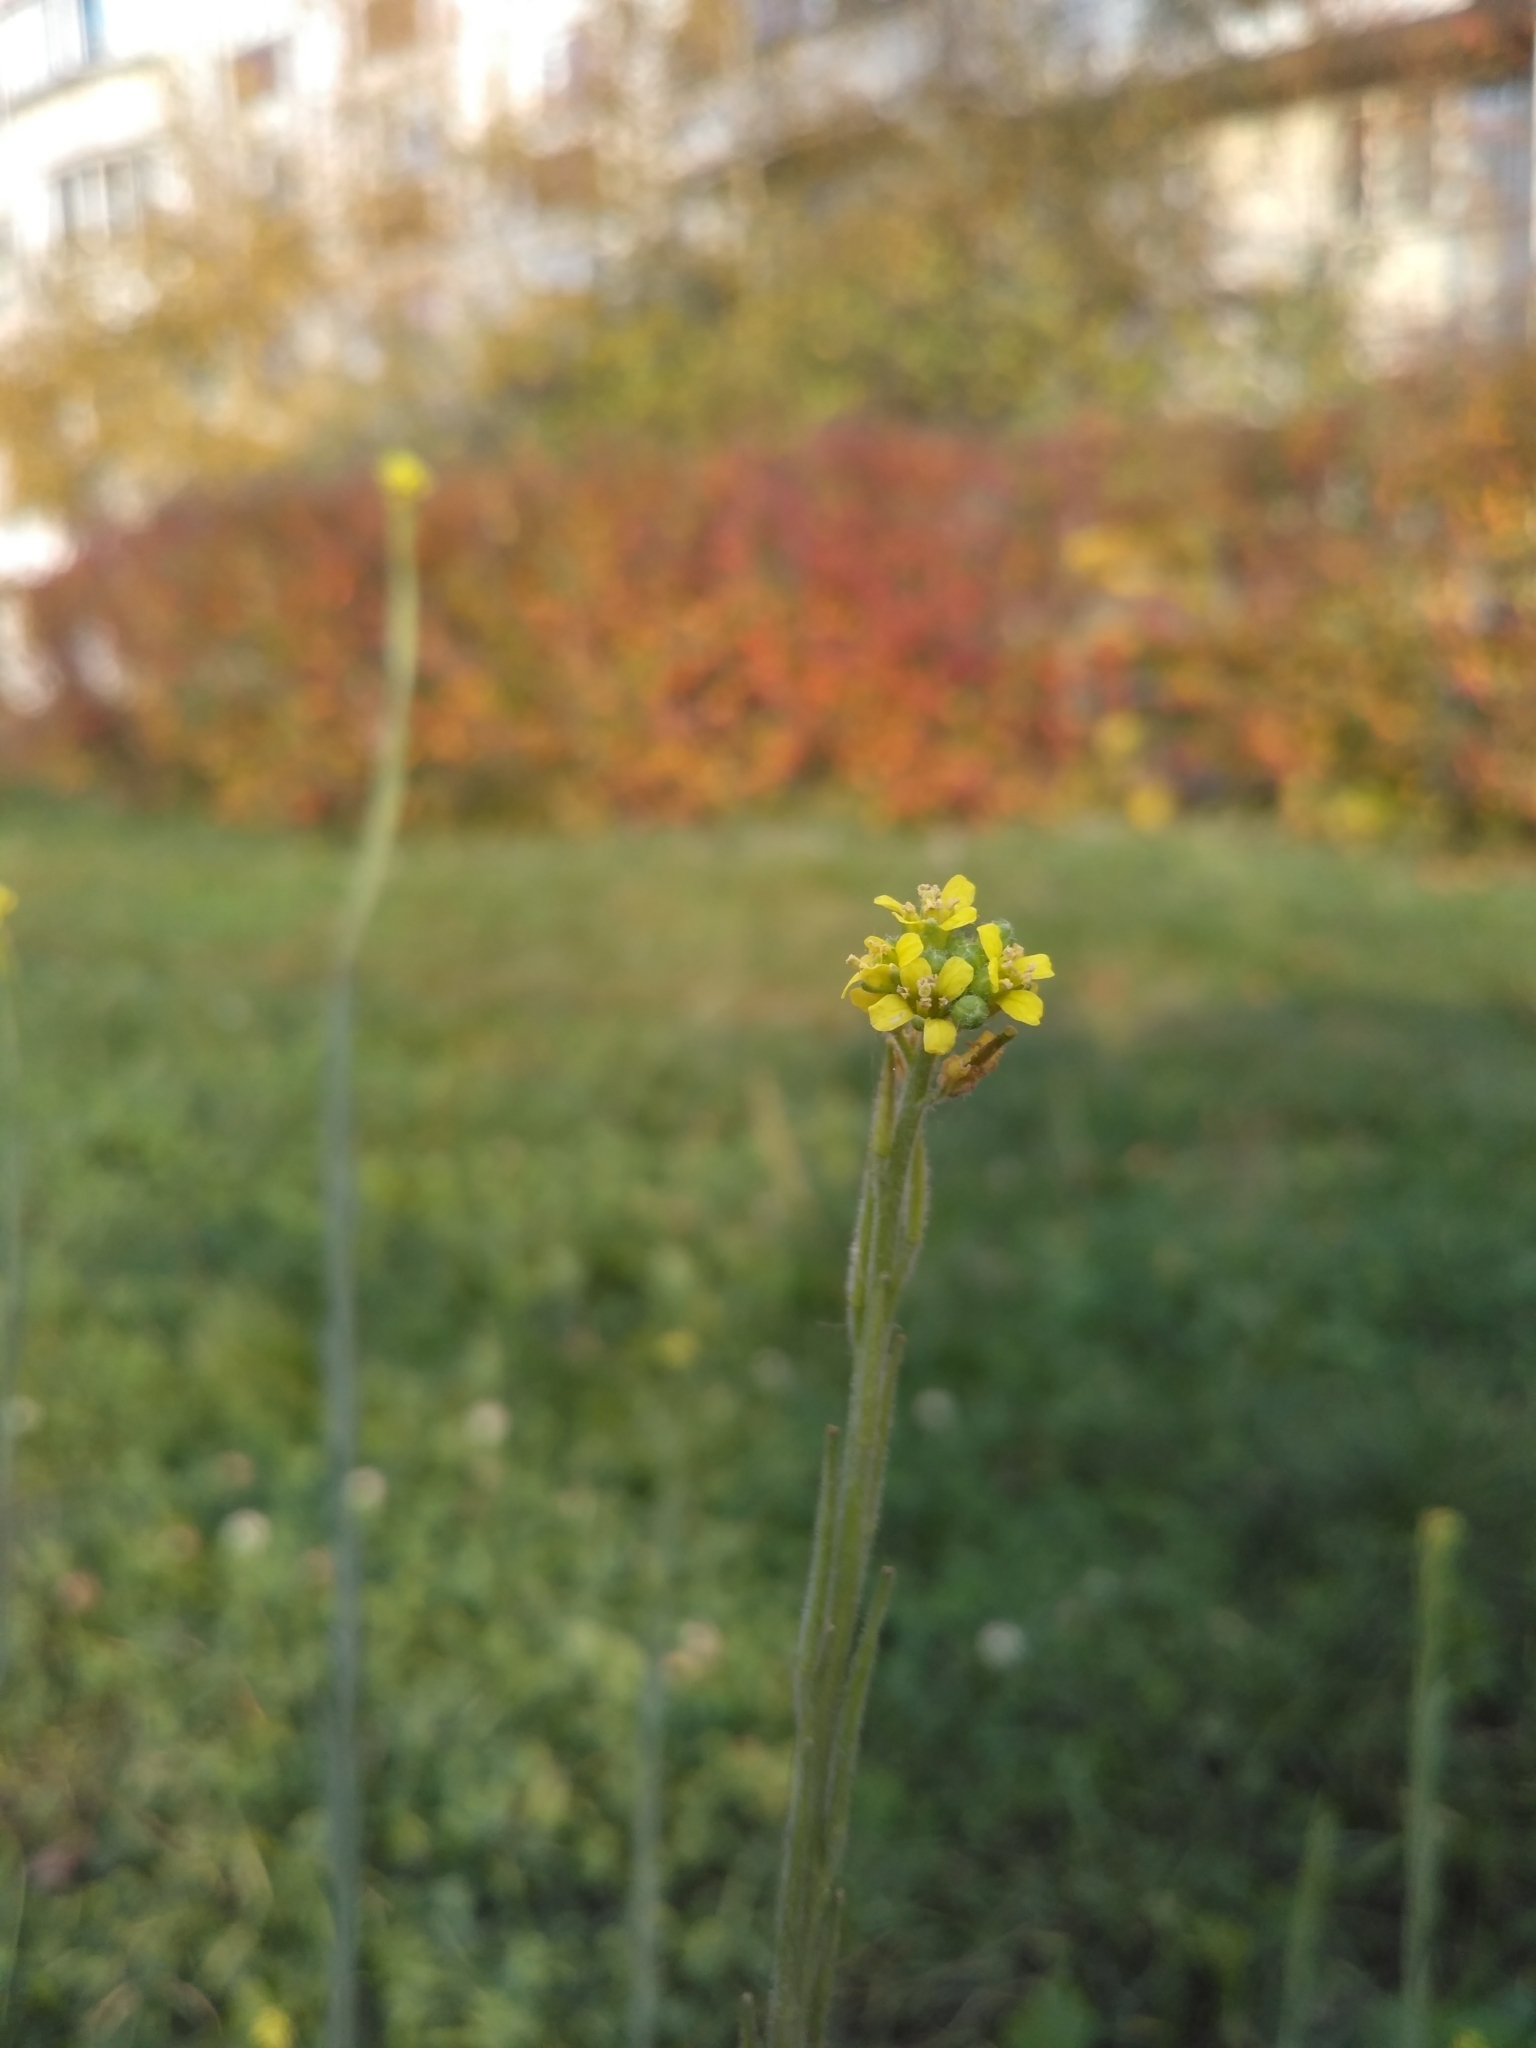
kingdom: Plantae
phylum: Tracheophyta
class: Magnoliopsida
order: Brassicales
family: Brassicaceae
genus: Sisymbrium
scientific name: Sisymbrium officinale
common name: Hedge mustard
